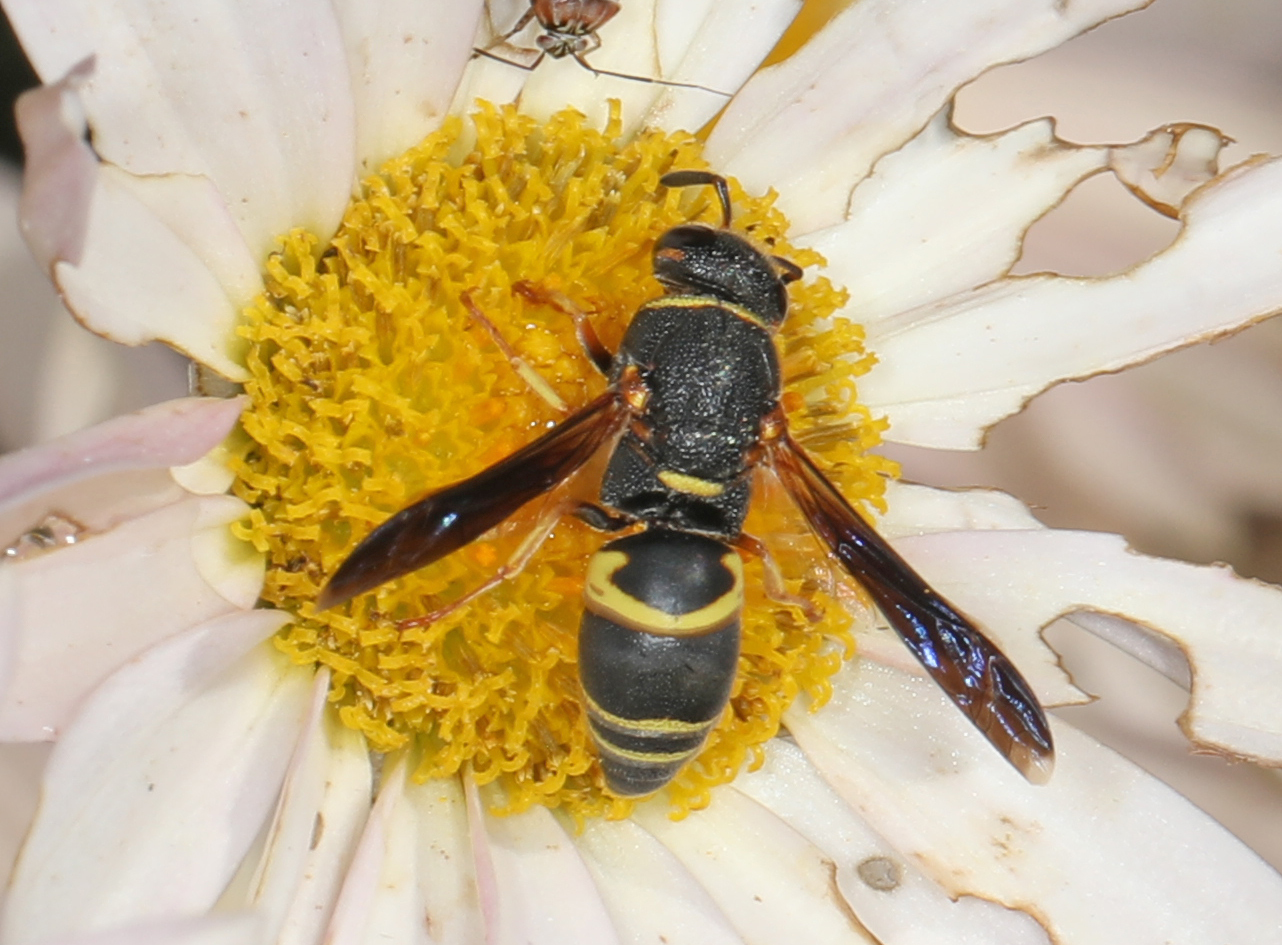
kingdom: Animalia
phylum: Arthropoda
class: Insecta
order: Hymenoptera
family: Eumenidae
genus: Euodynerus
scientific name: Euodynerus hidalgo
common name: Wasp
